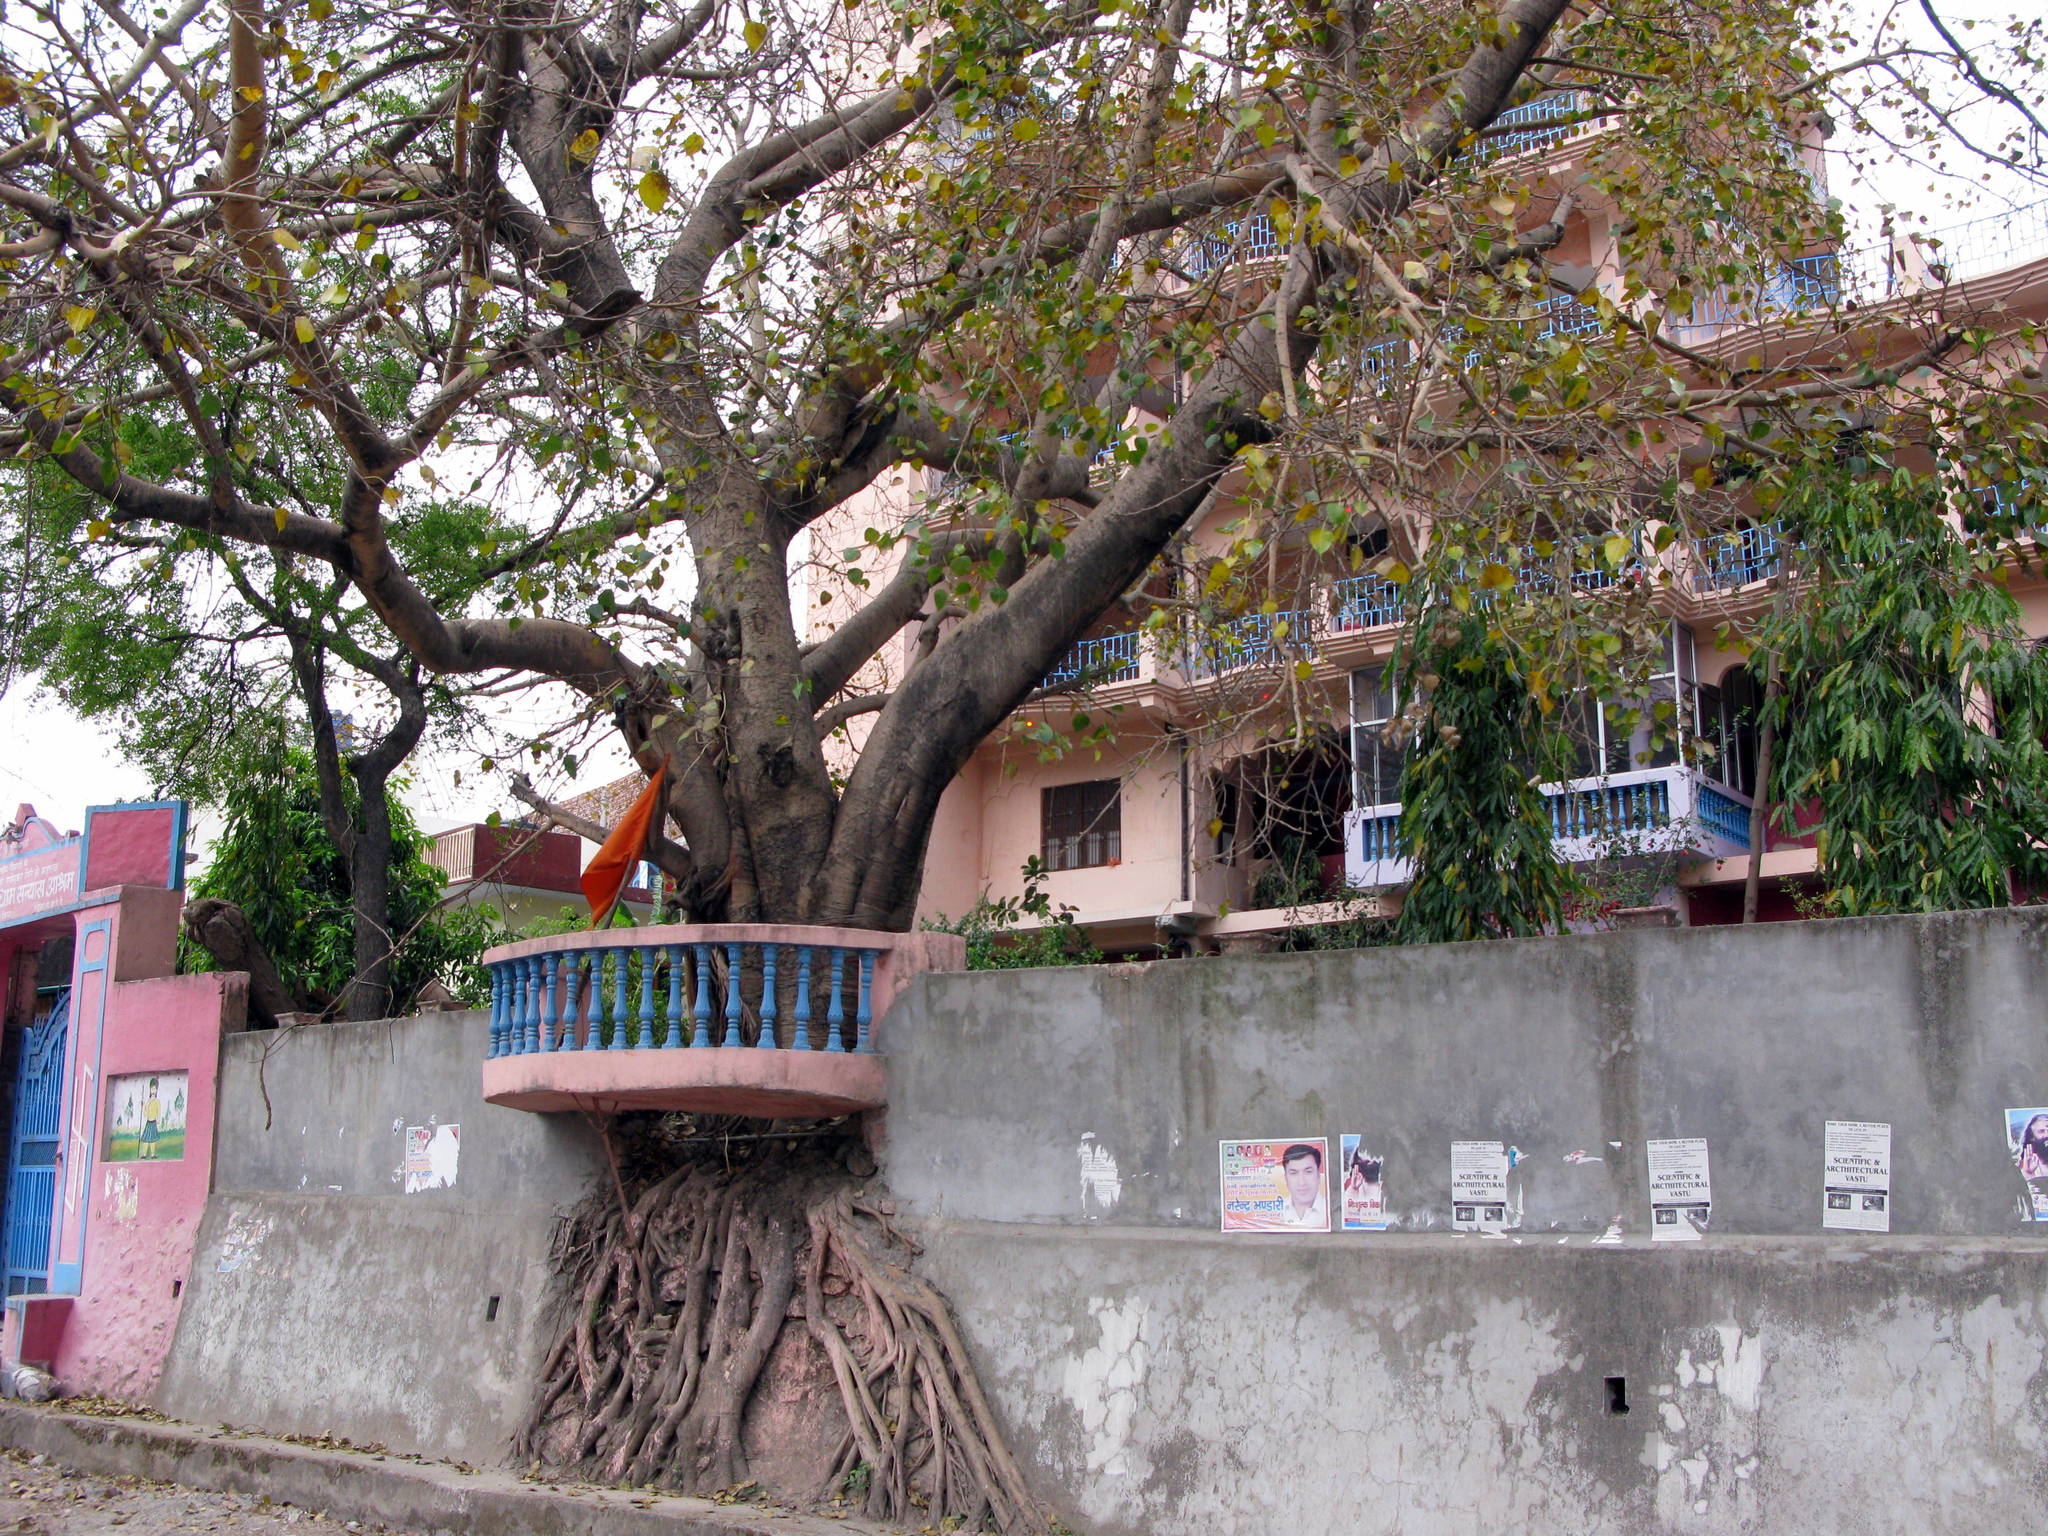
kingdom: Plantae
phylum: Tracheophyta
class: Magnoliopsida
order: Rosales
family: Moraceae
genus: Ficus
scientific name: Ficus religiosa
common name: Bodhi tree
